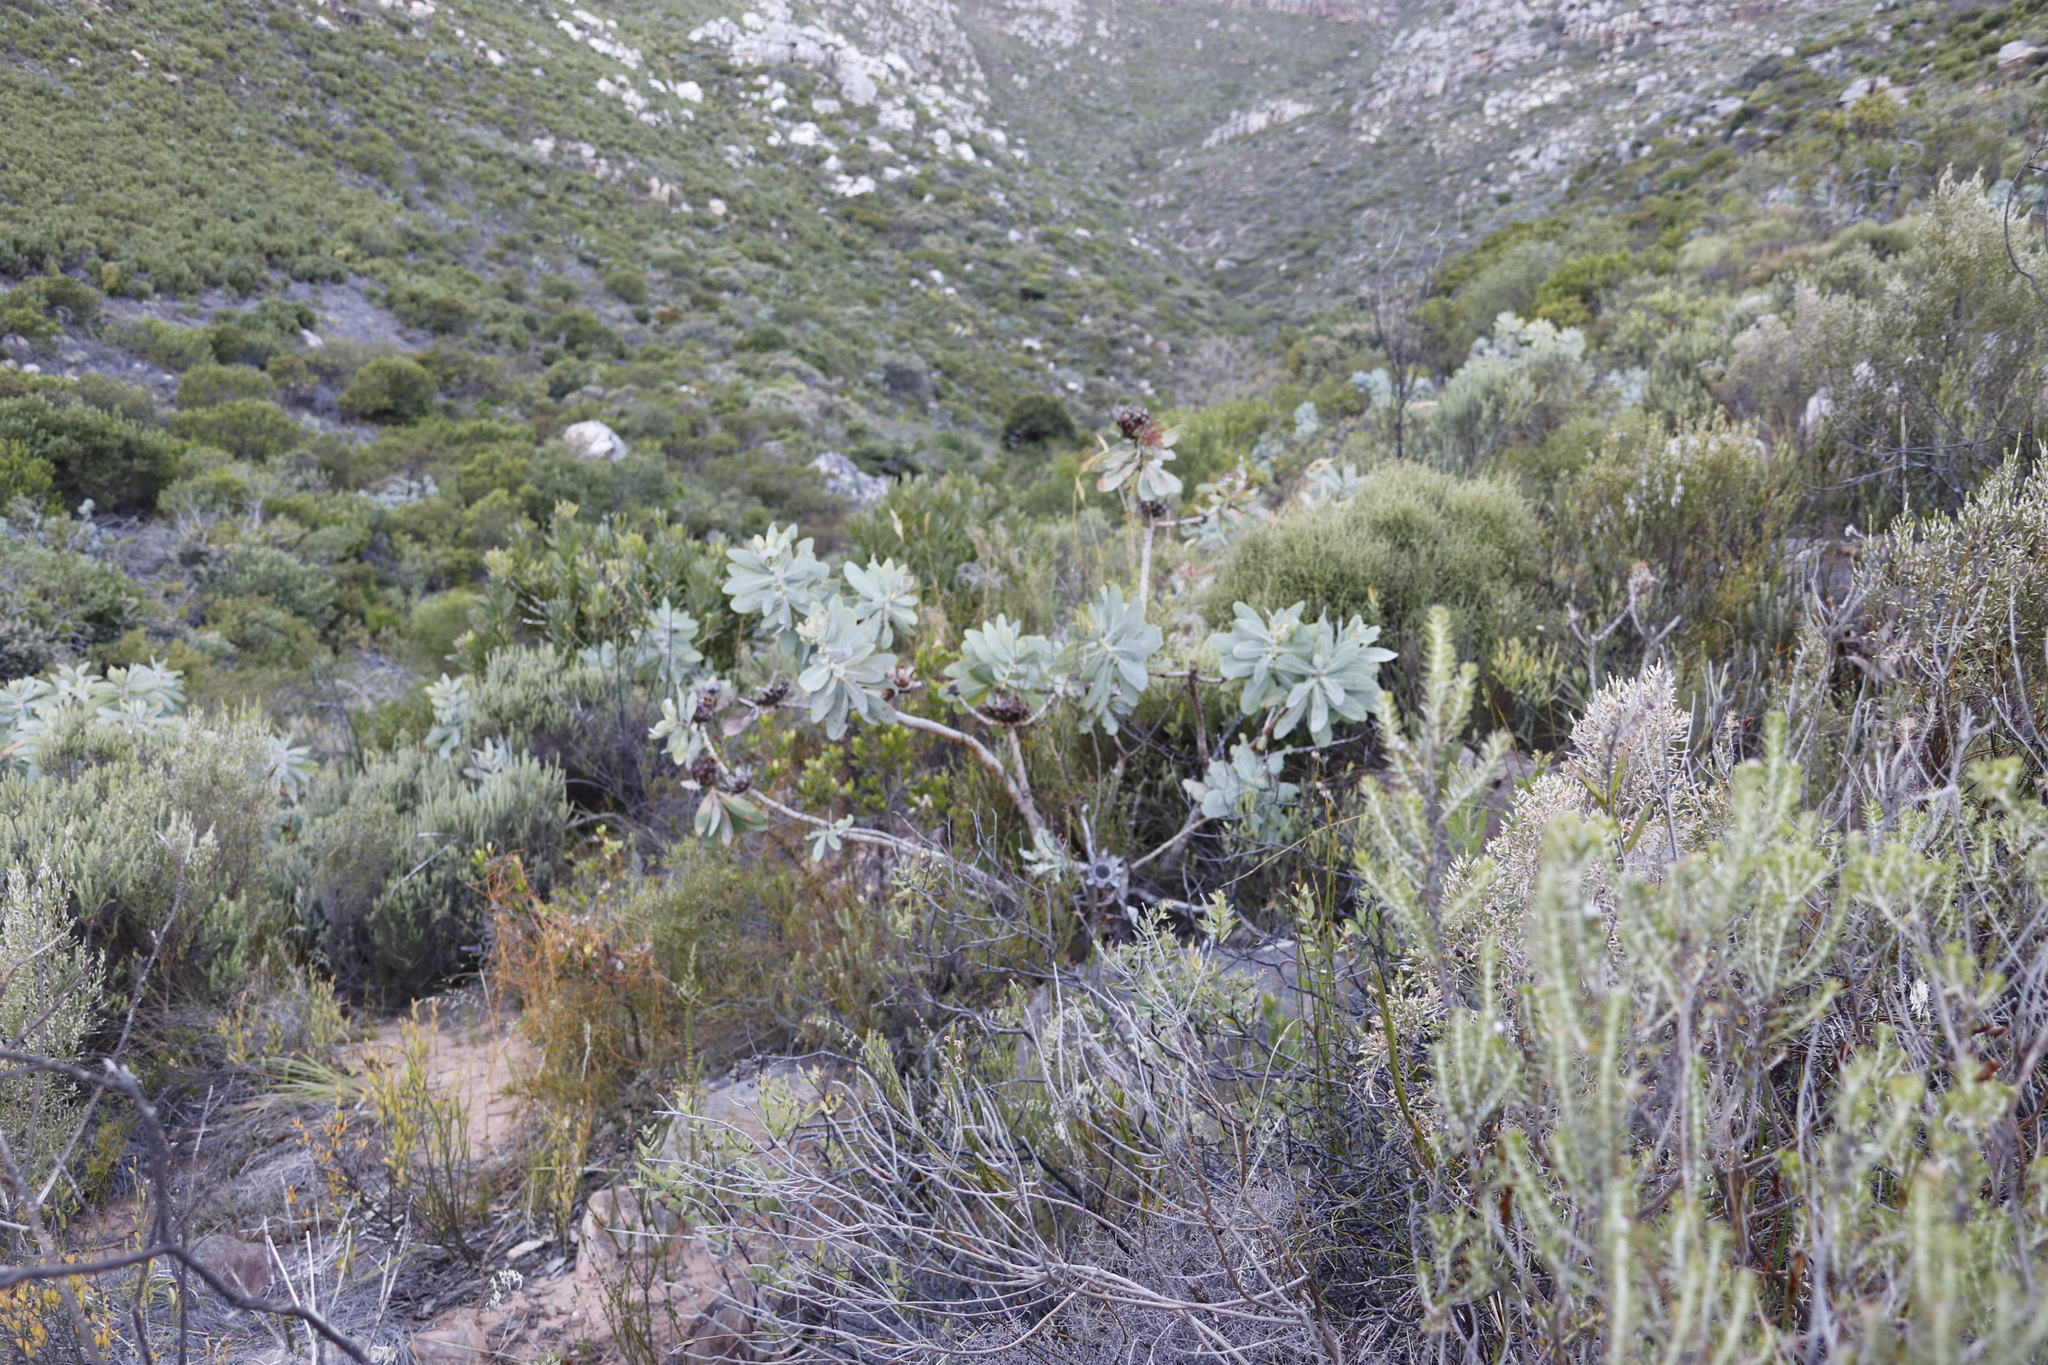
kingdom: Plantae
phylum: Tracheophyta
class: Magnoliopsida
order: Proteales
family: Proteaceae
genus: Protea
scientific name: Protea nitida
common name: Tree protea
